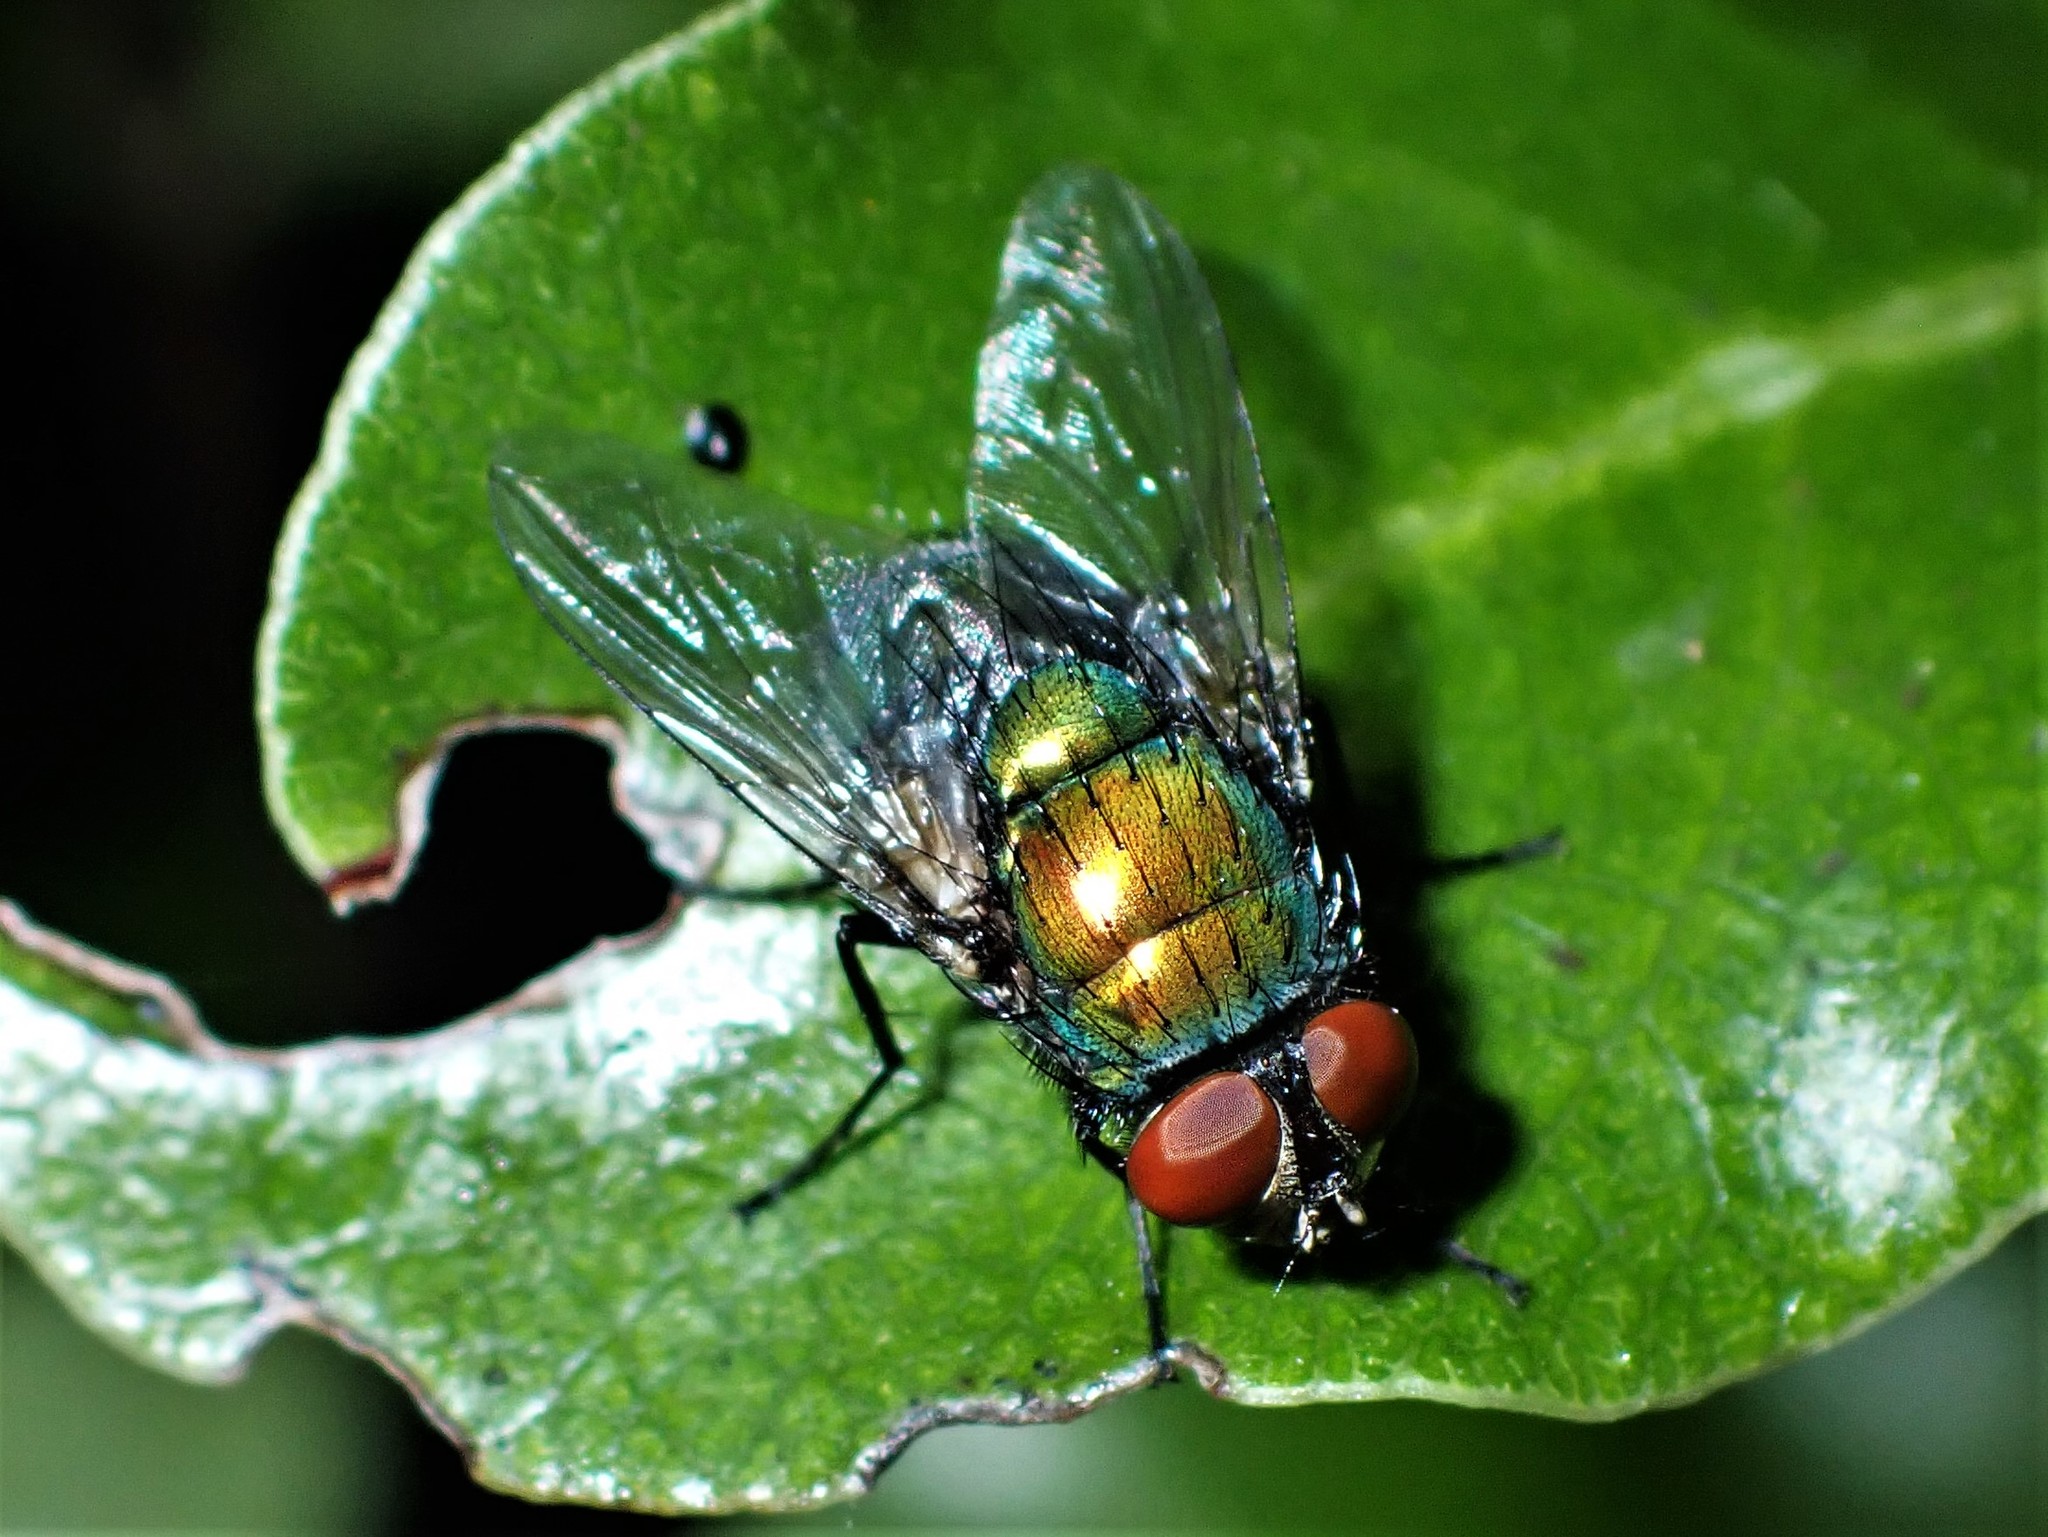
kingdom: Animalia
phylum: Arthropoda
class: Insecta
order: Diptera
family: Calliphoridae
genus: Lucilia
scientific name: Lucilia sericata
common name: Blow fly
